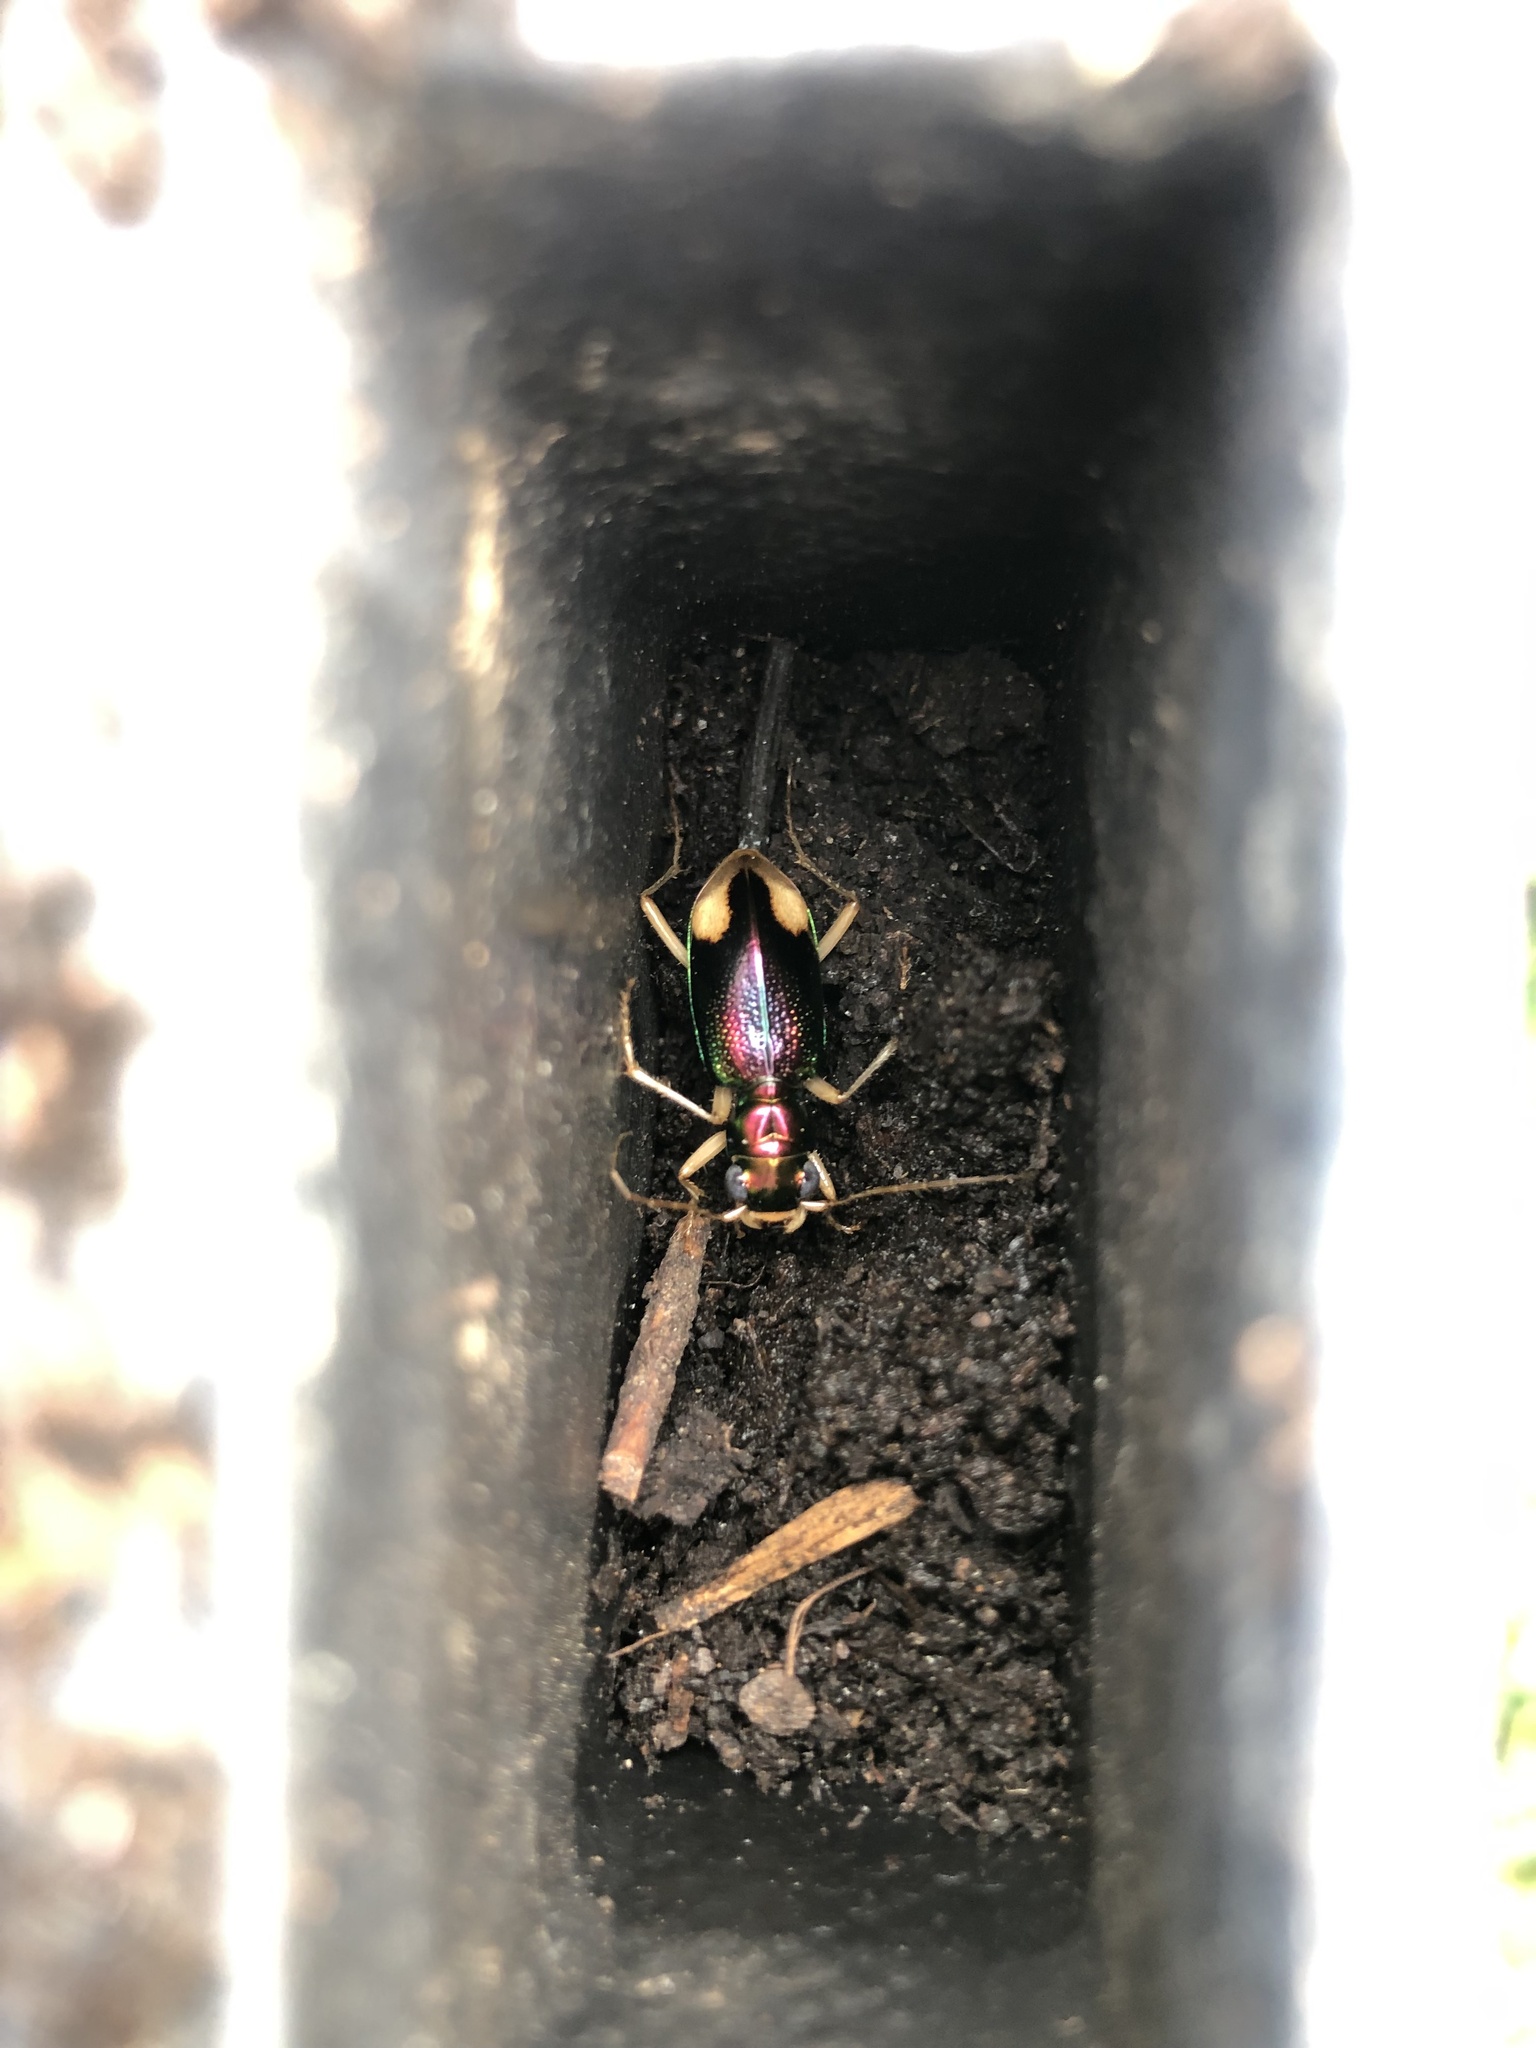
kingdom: Animalia
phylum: Arthropoda
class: Insecta
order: Coleoptera
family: Carabidae
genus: Tetracha
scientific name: Tetracha carolina
